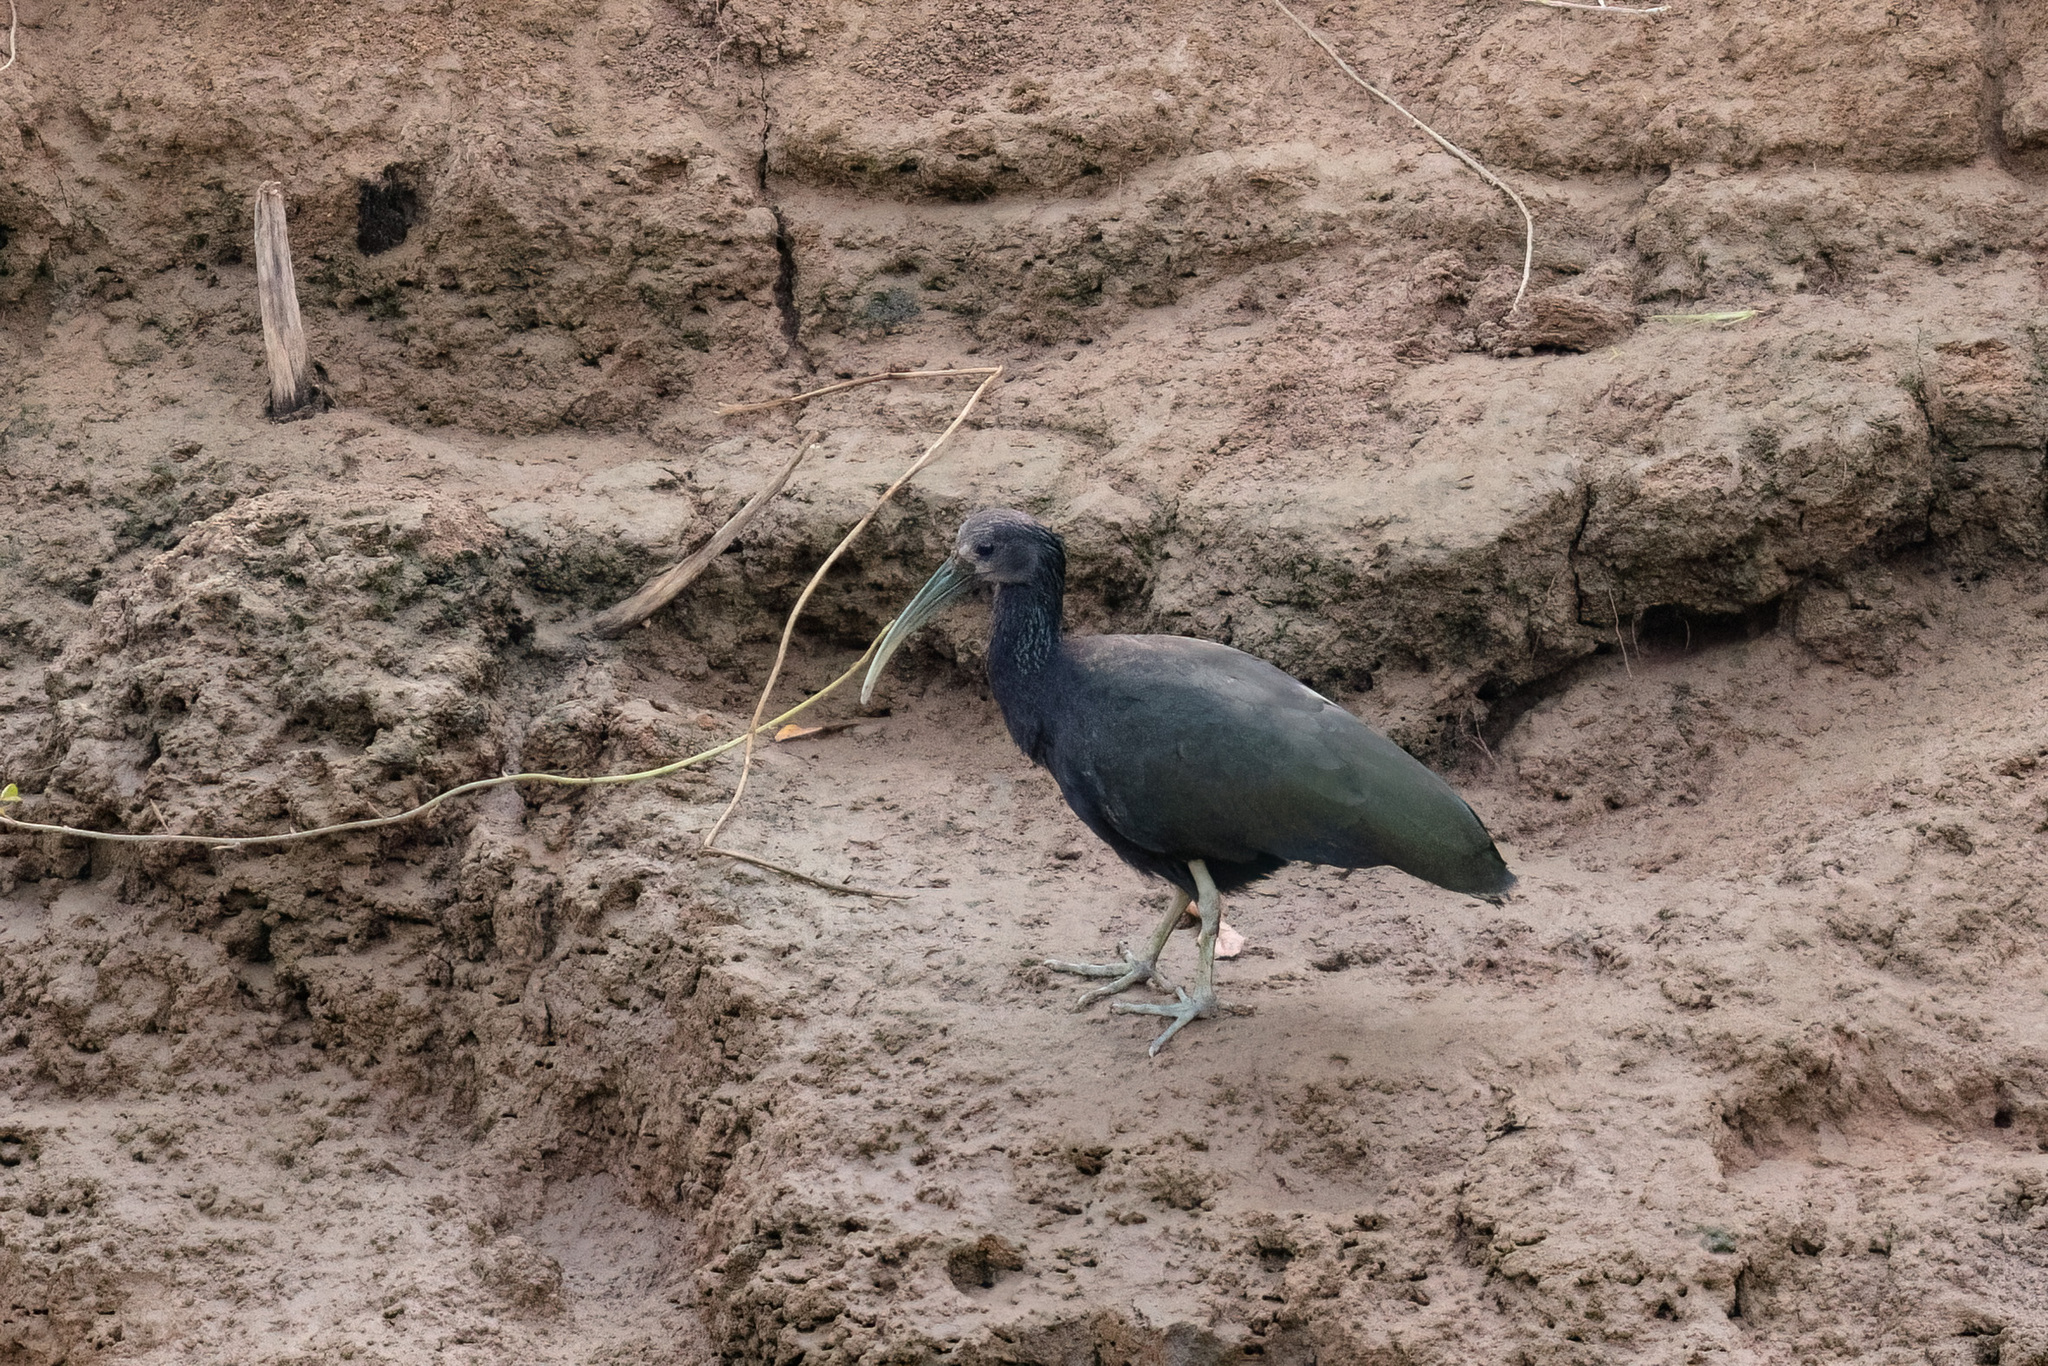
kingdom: Animalia
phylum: Chordata
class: Aves
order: Pelecaniformes
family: Threskiornithidae
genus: Mesembrinibis
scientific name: Mesembrinibis cayennensis
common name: Green ibis
